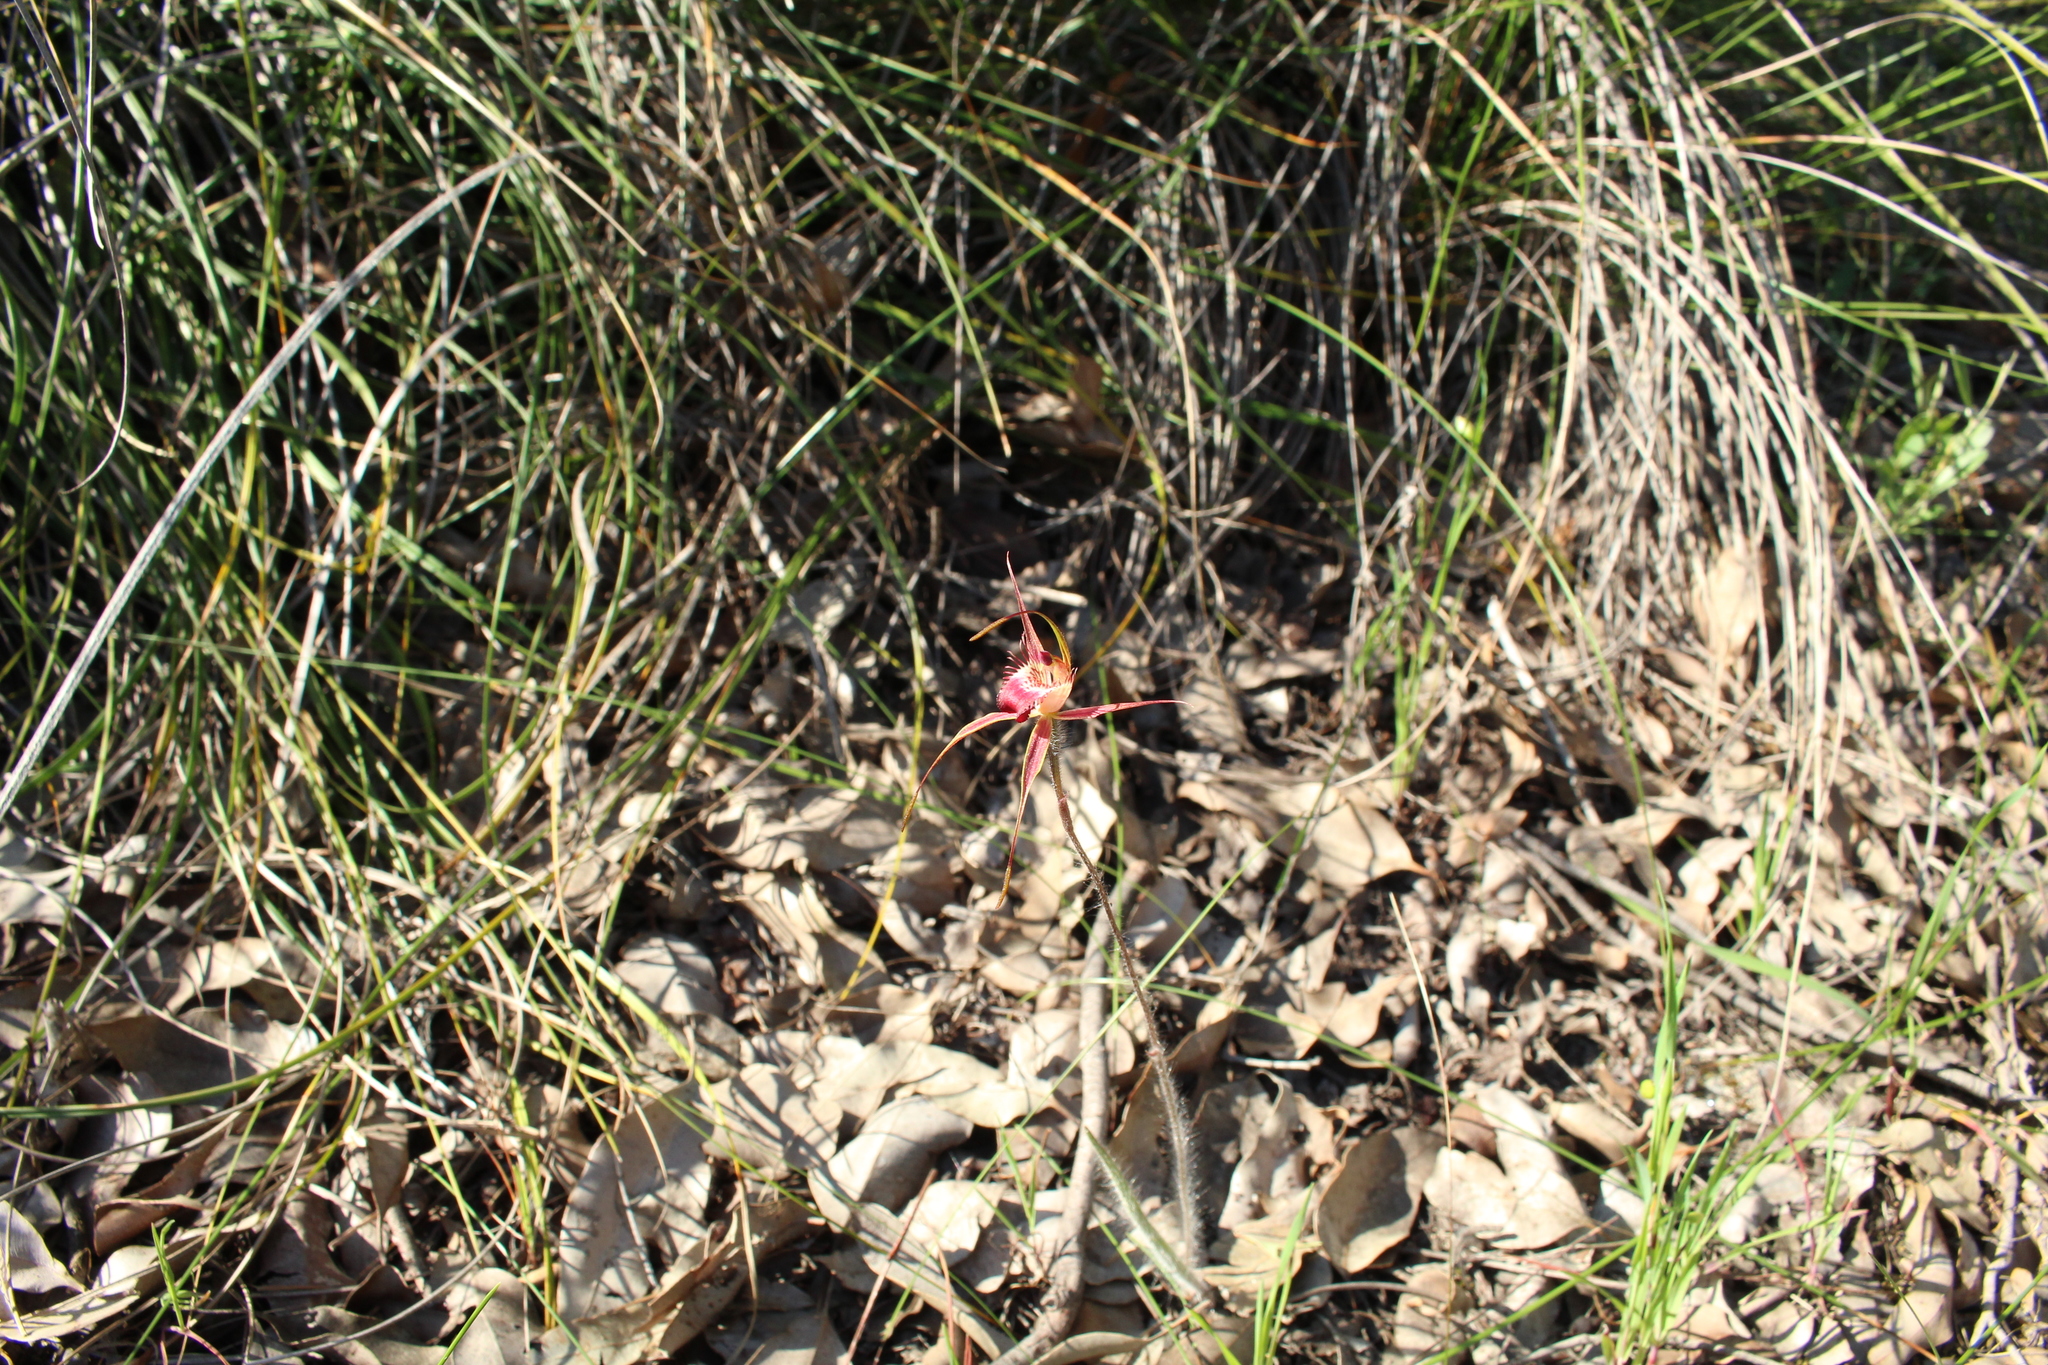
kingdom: Plantae
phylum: Tracheophyta
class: Liliopsida
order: Asparagales
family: Orchidaceae
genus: Caladenia
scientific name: Caladenia ferruginea
